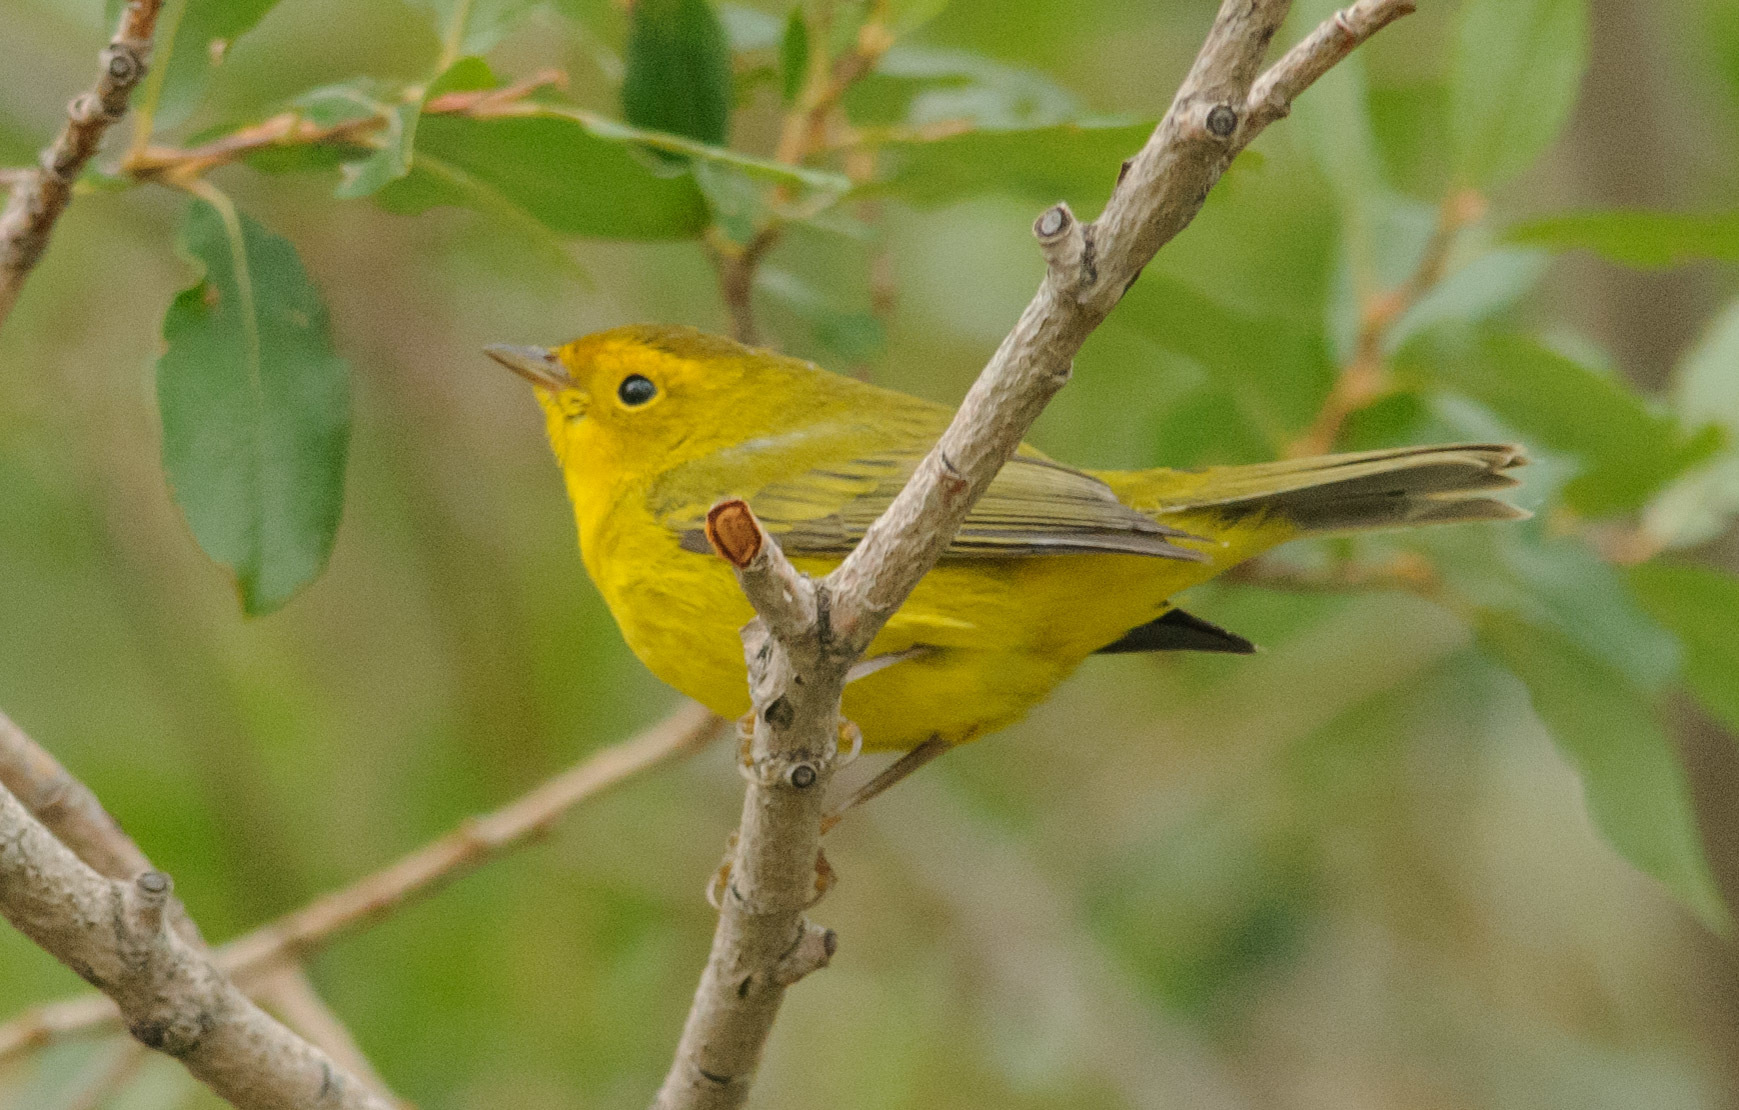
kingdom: Animalia
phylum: Chordata
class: Aves
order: Passeriformes
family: Parulidae
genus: Cardellina
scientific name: Cardellina pusilla
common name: Wilson's warbler
